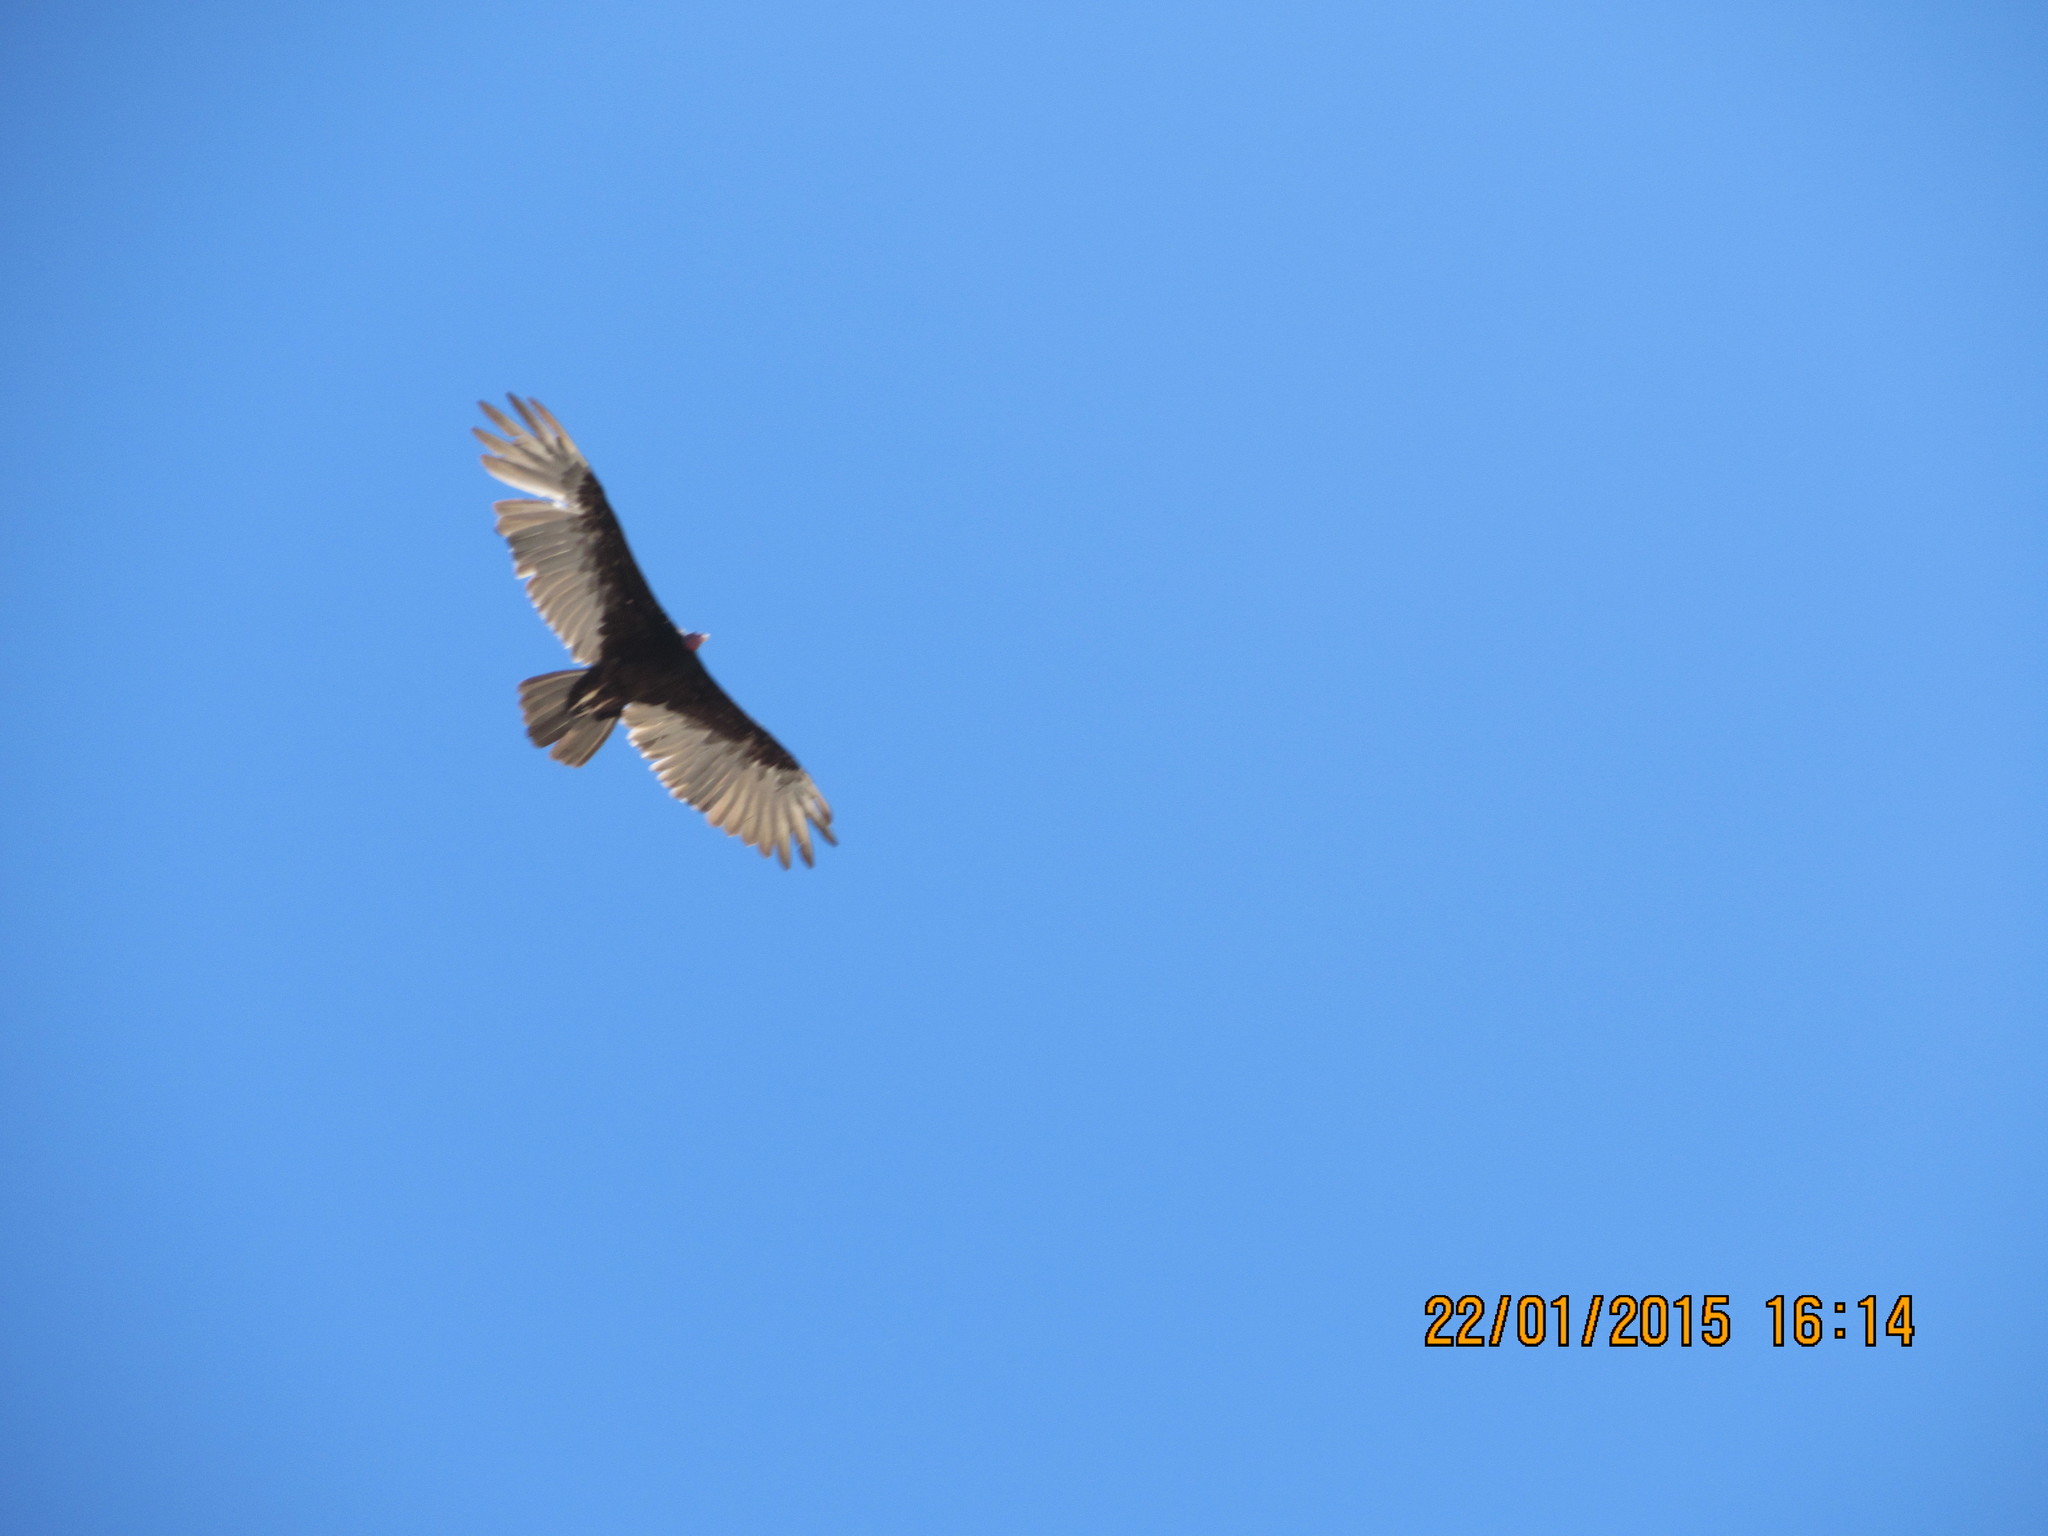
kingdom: Animalia
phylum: Chordata
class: Aves
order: Accipitriformes
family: Cathartidae
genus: Cathartes
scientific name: Cathartes aura
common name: Turkey vulture
